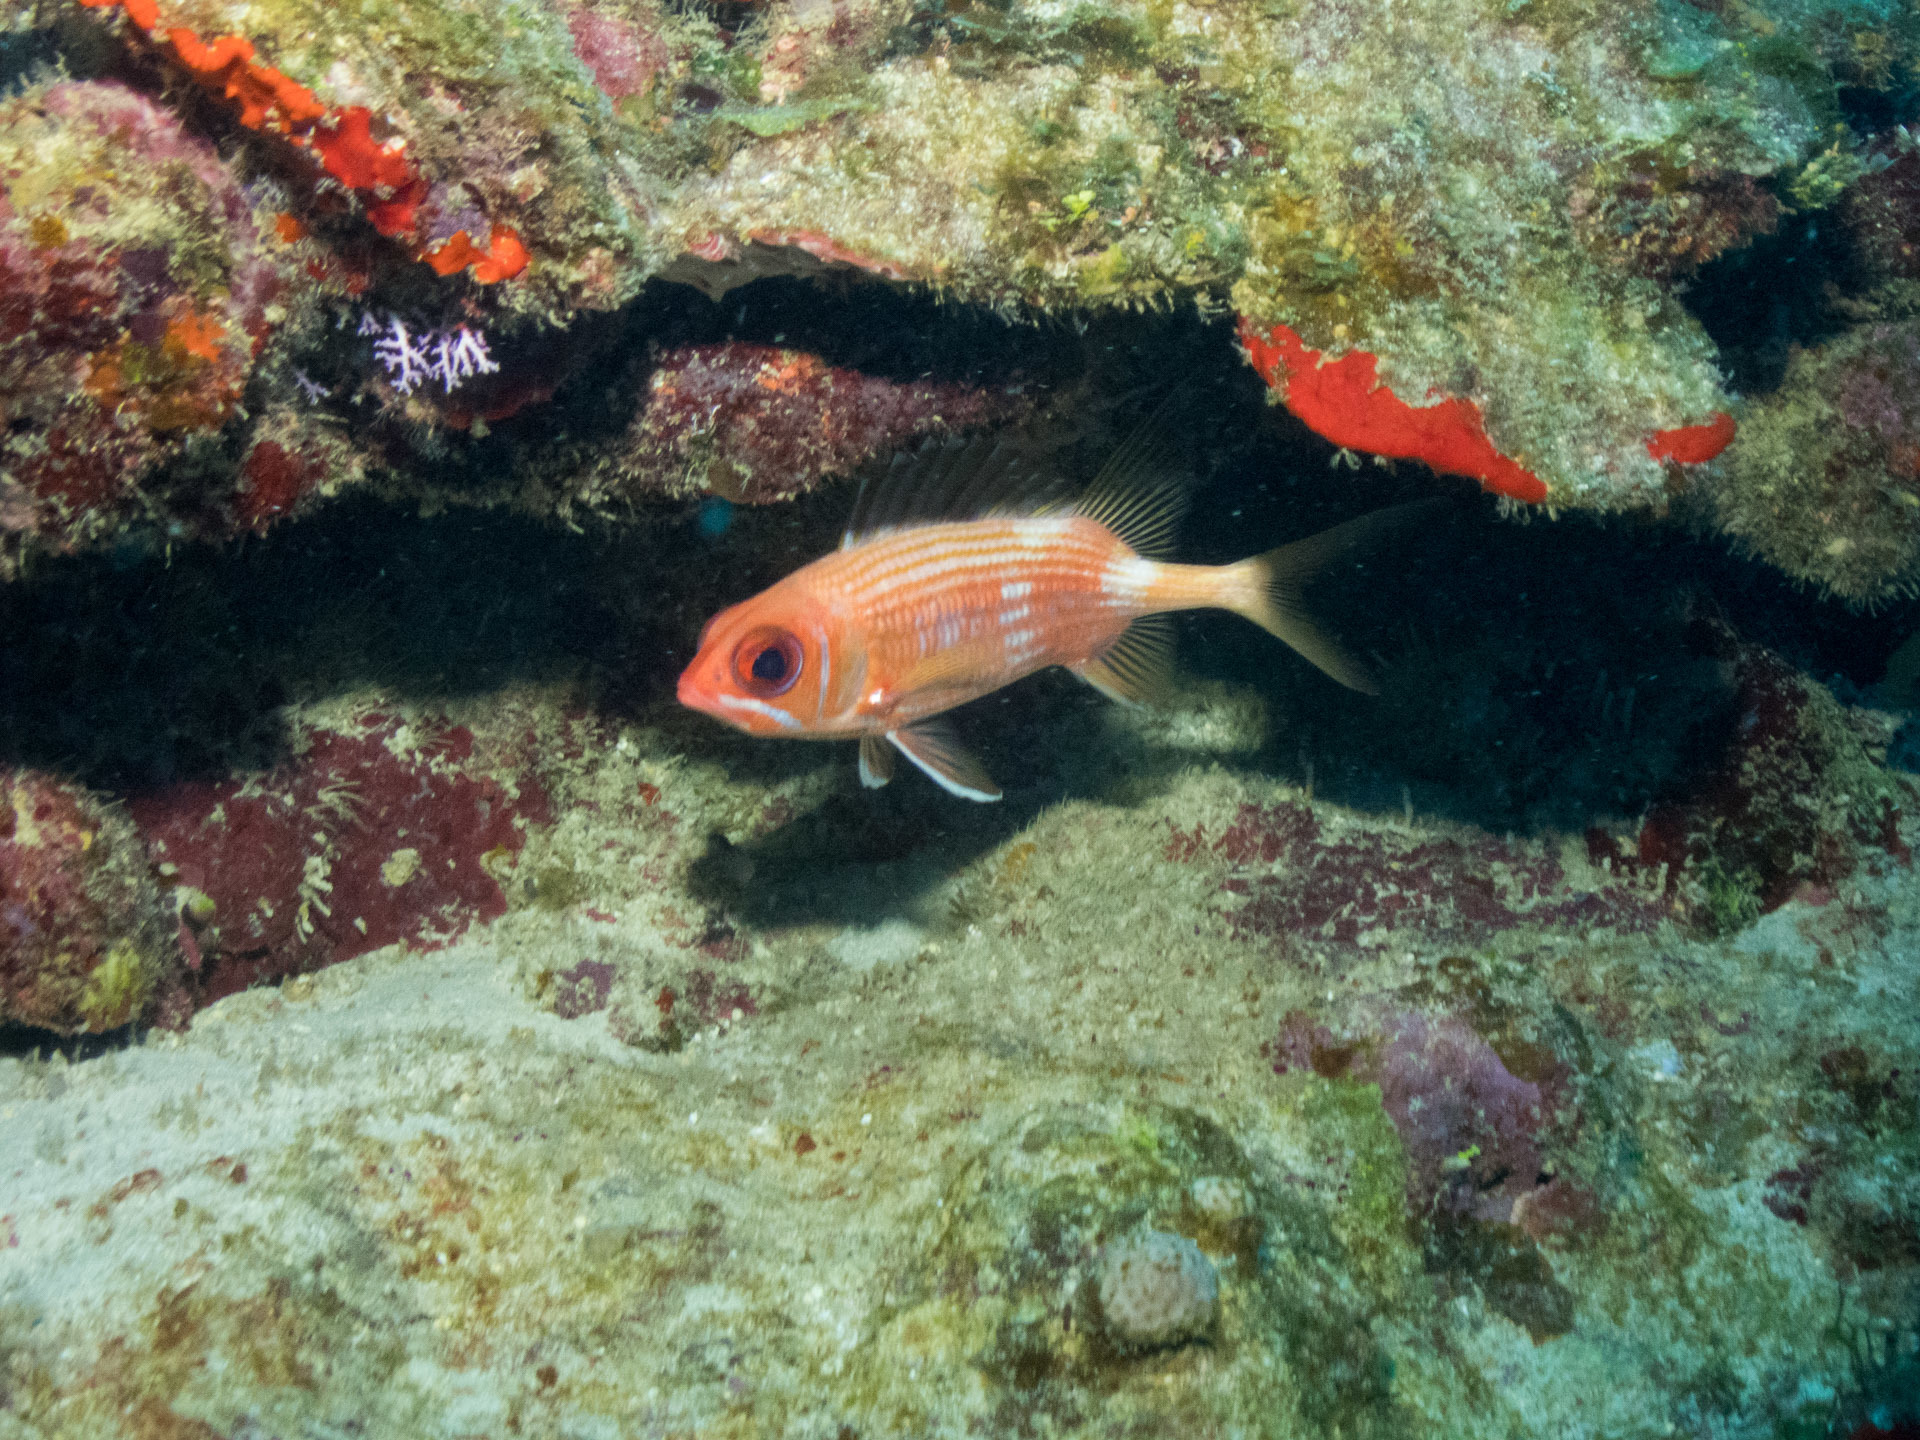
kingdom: Animalia
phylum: Chordata
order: Beryciformes
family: Holocentridae
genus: Holocentrus
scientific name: Holocentrus rufus
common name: Longspine squirrelfish
